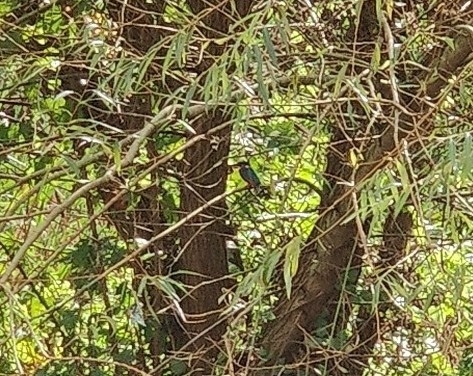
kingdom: Animalia
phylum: Chordata
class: Aves
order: Coraciiformes
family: Alcedinidae
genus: Alcedo
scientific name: Alcedo atthis
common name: Common kingfisher
